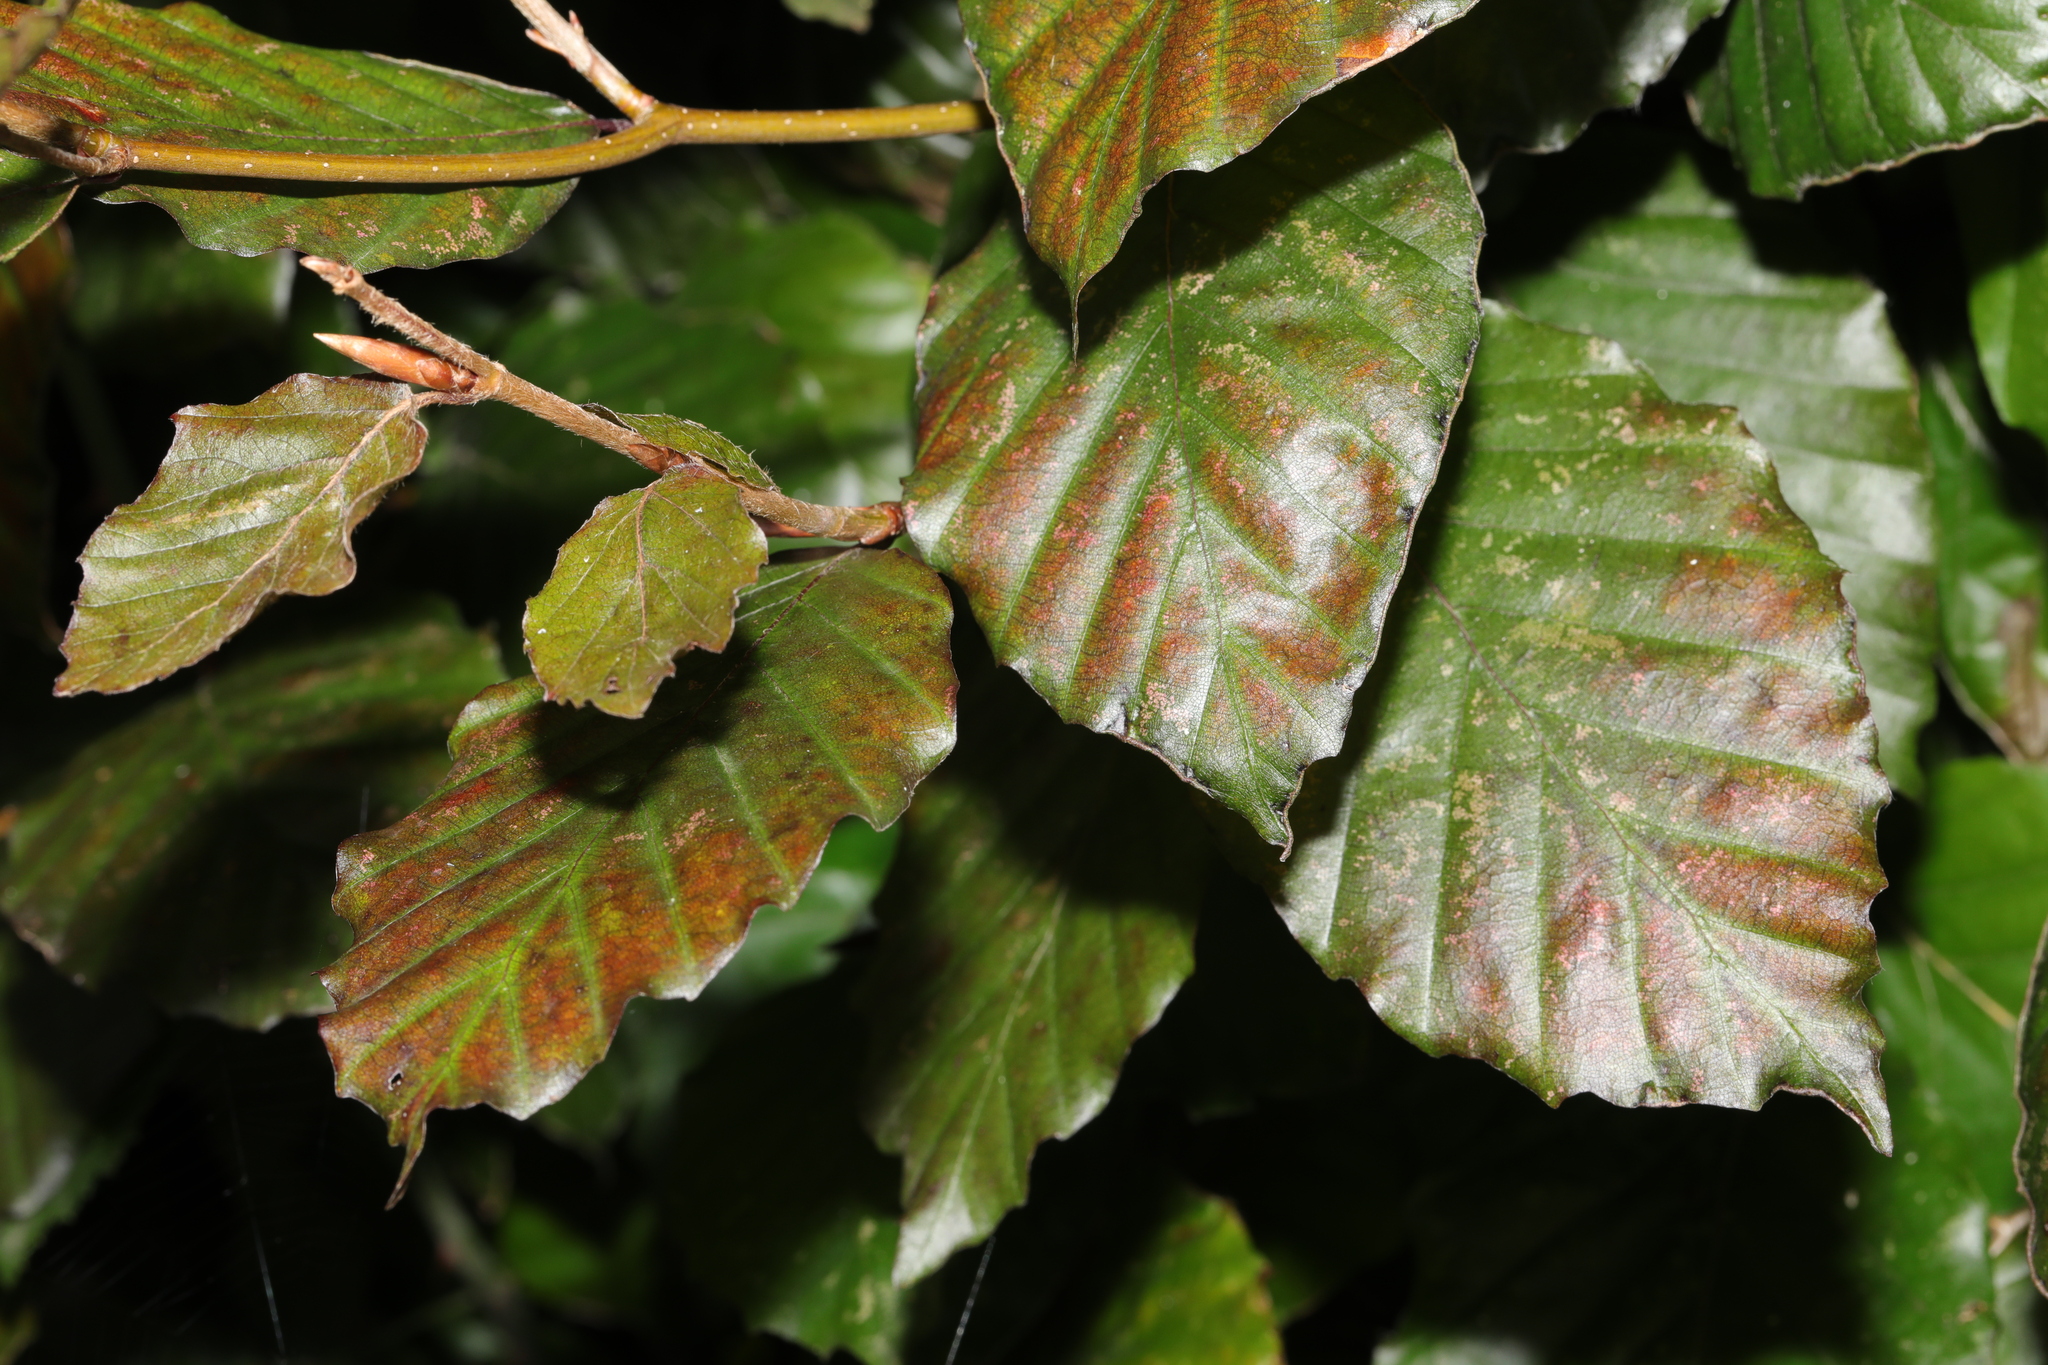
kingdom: Plantae
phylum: Tracheophyta
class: Magnoliopsida
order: Fagales
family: Fagaceae
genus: Fagus
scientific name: Fagus sylvatica
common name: Beech
